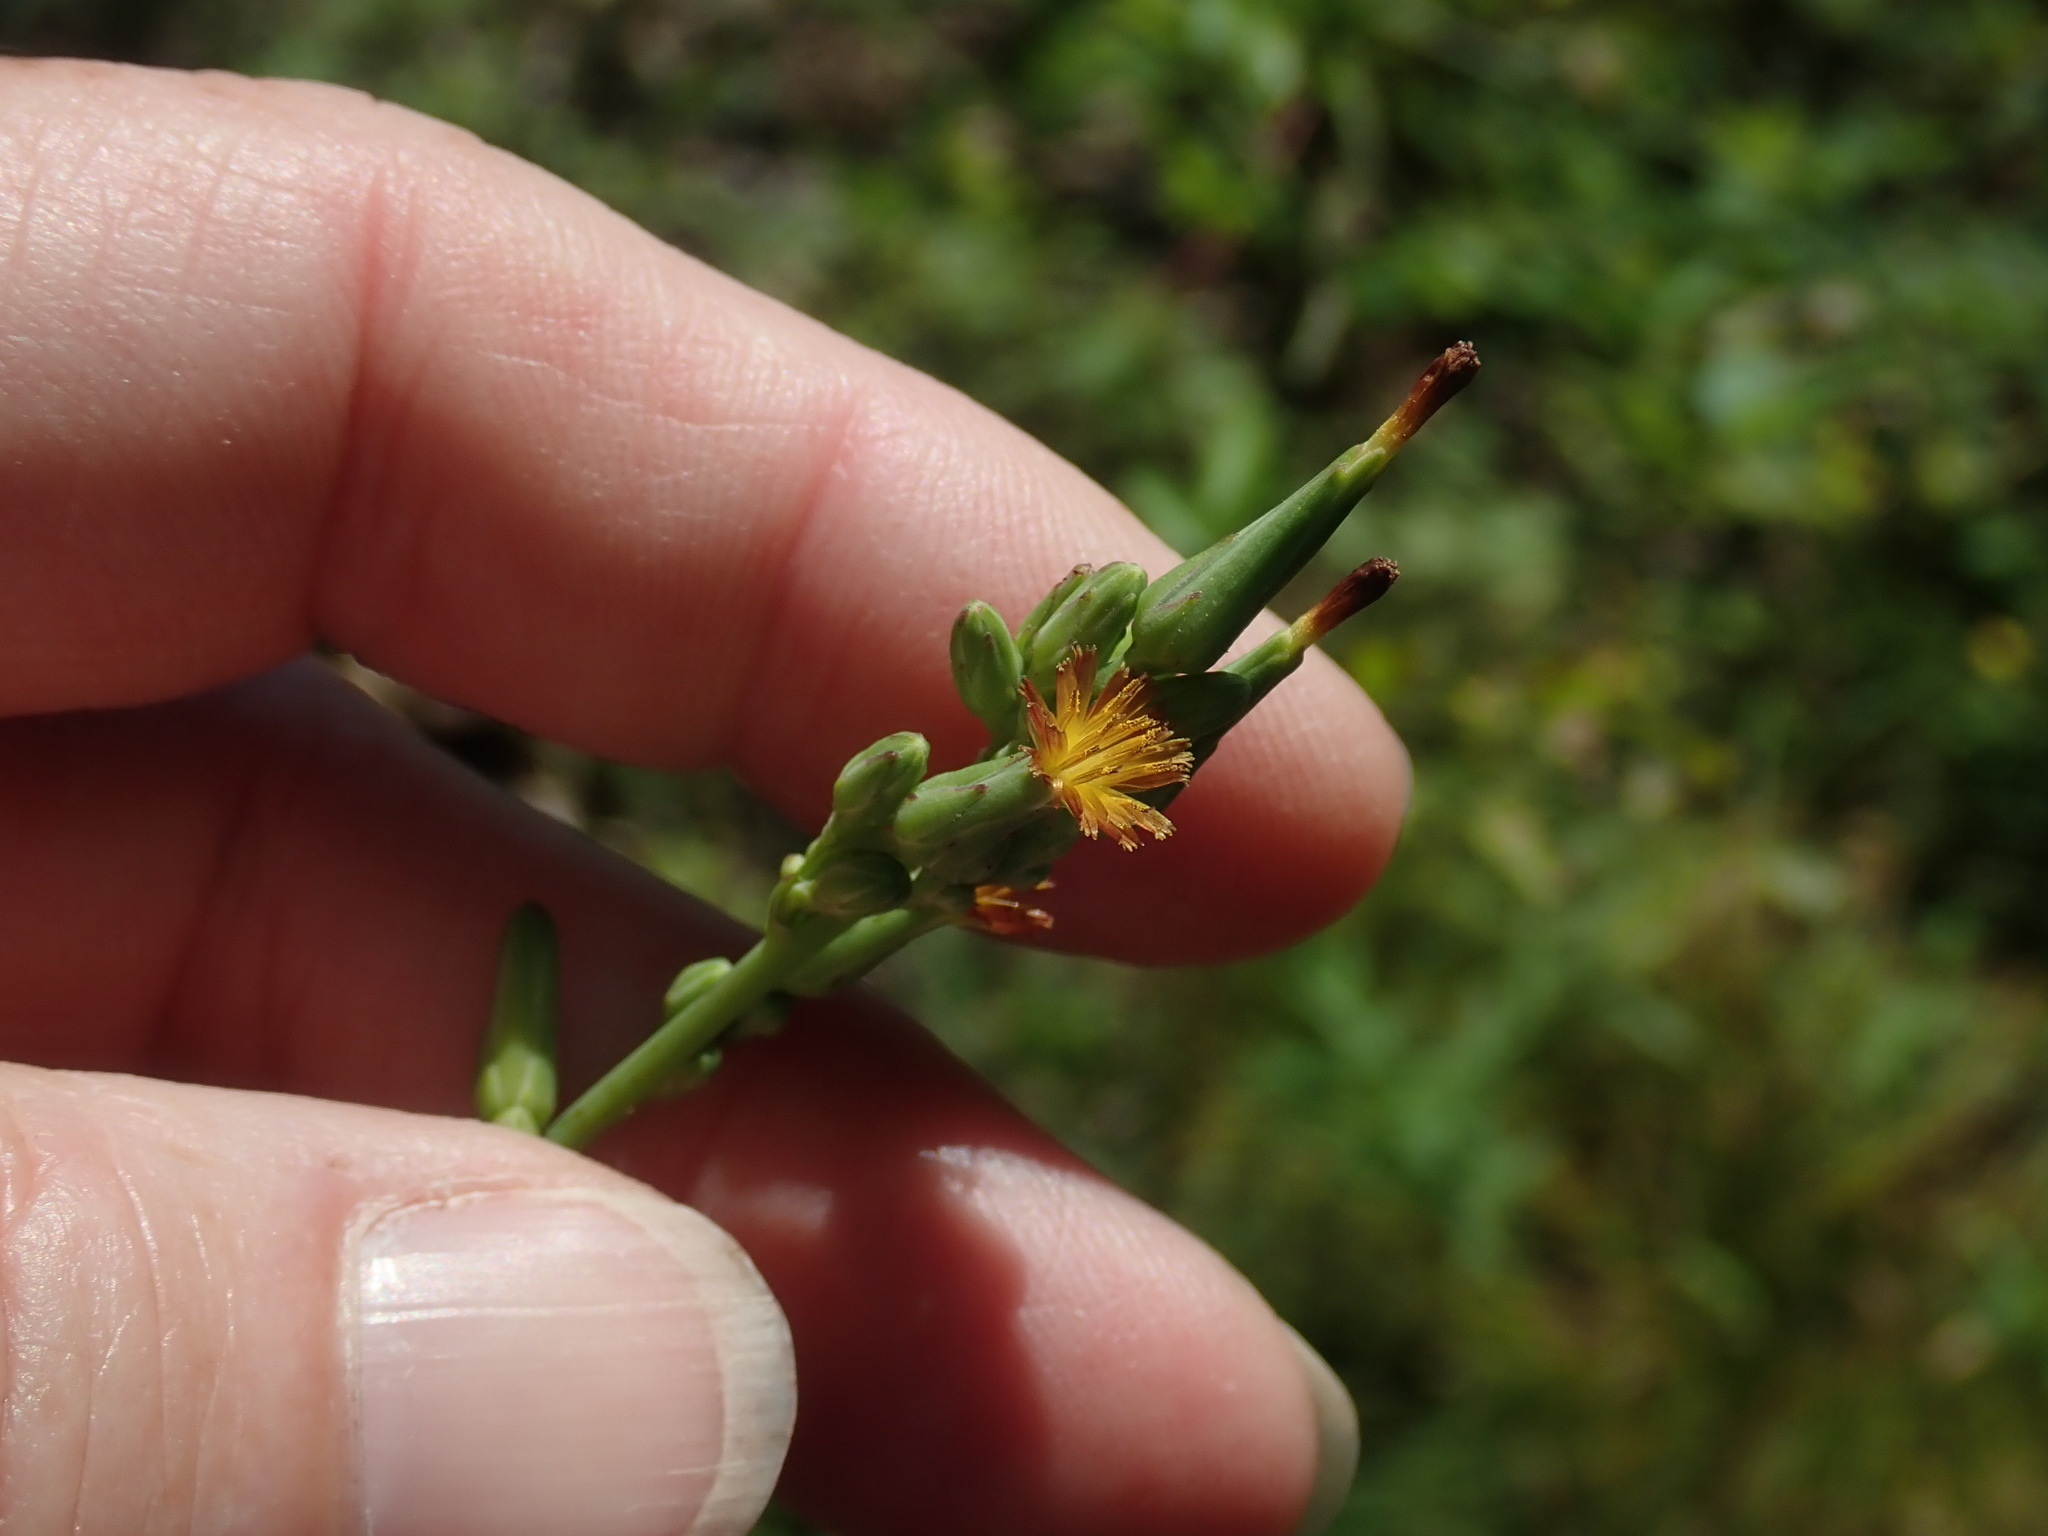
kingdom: Plantae
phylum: Tracheophyta
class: Magnoliopsida
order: Asterales
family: Asteraceae
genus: Lactuca
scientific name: Lactuca canadensis
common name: Canada lettuce
